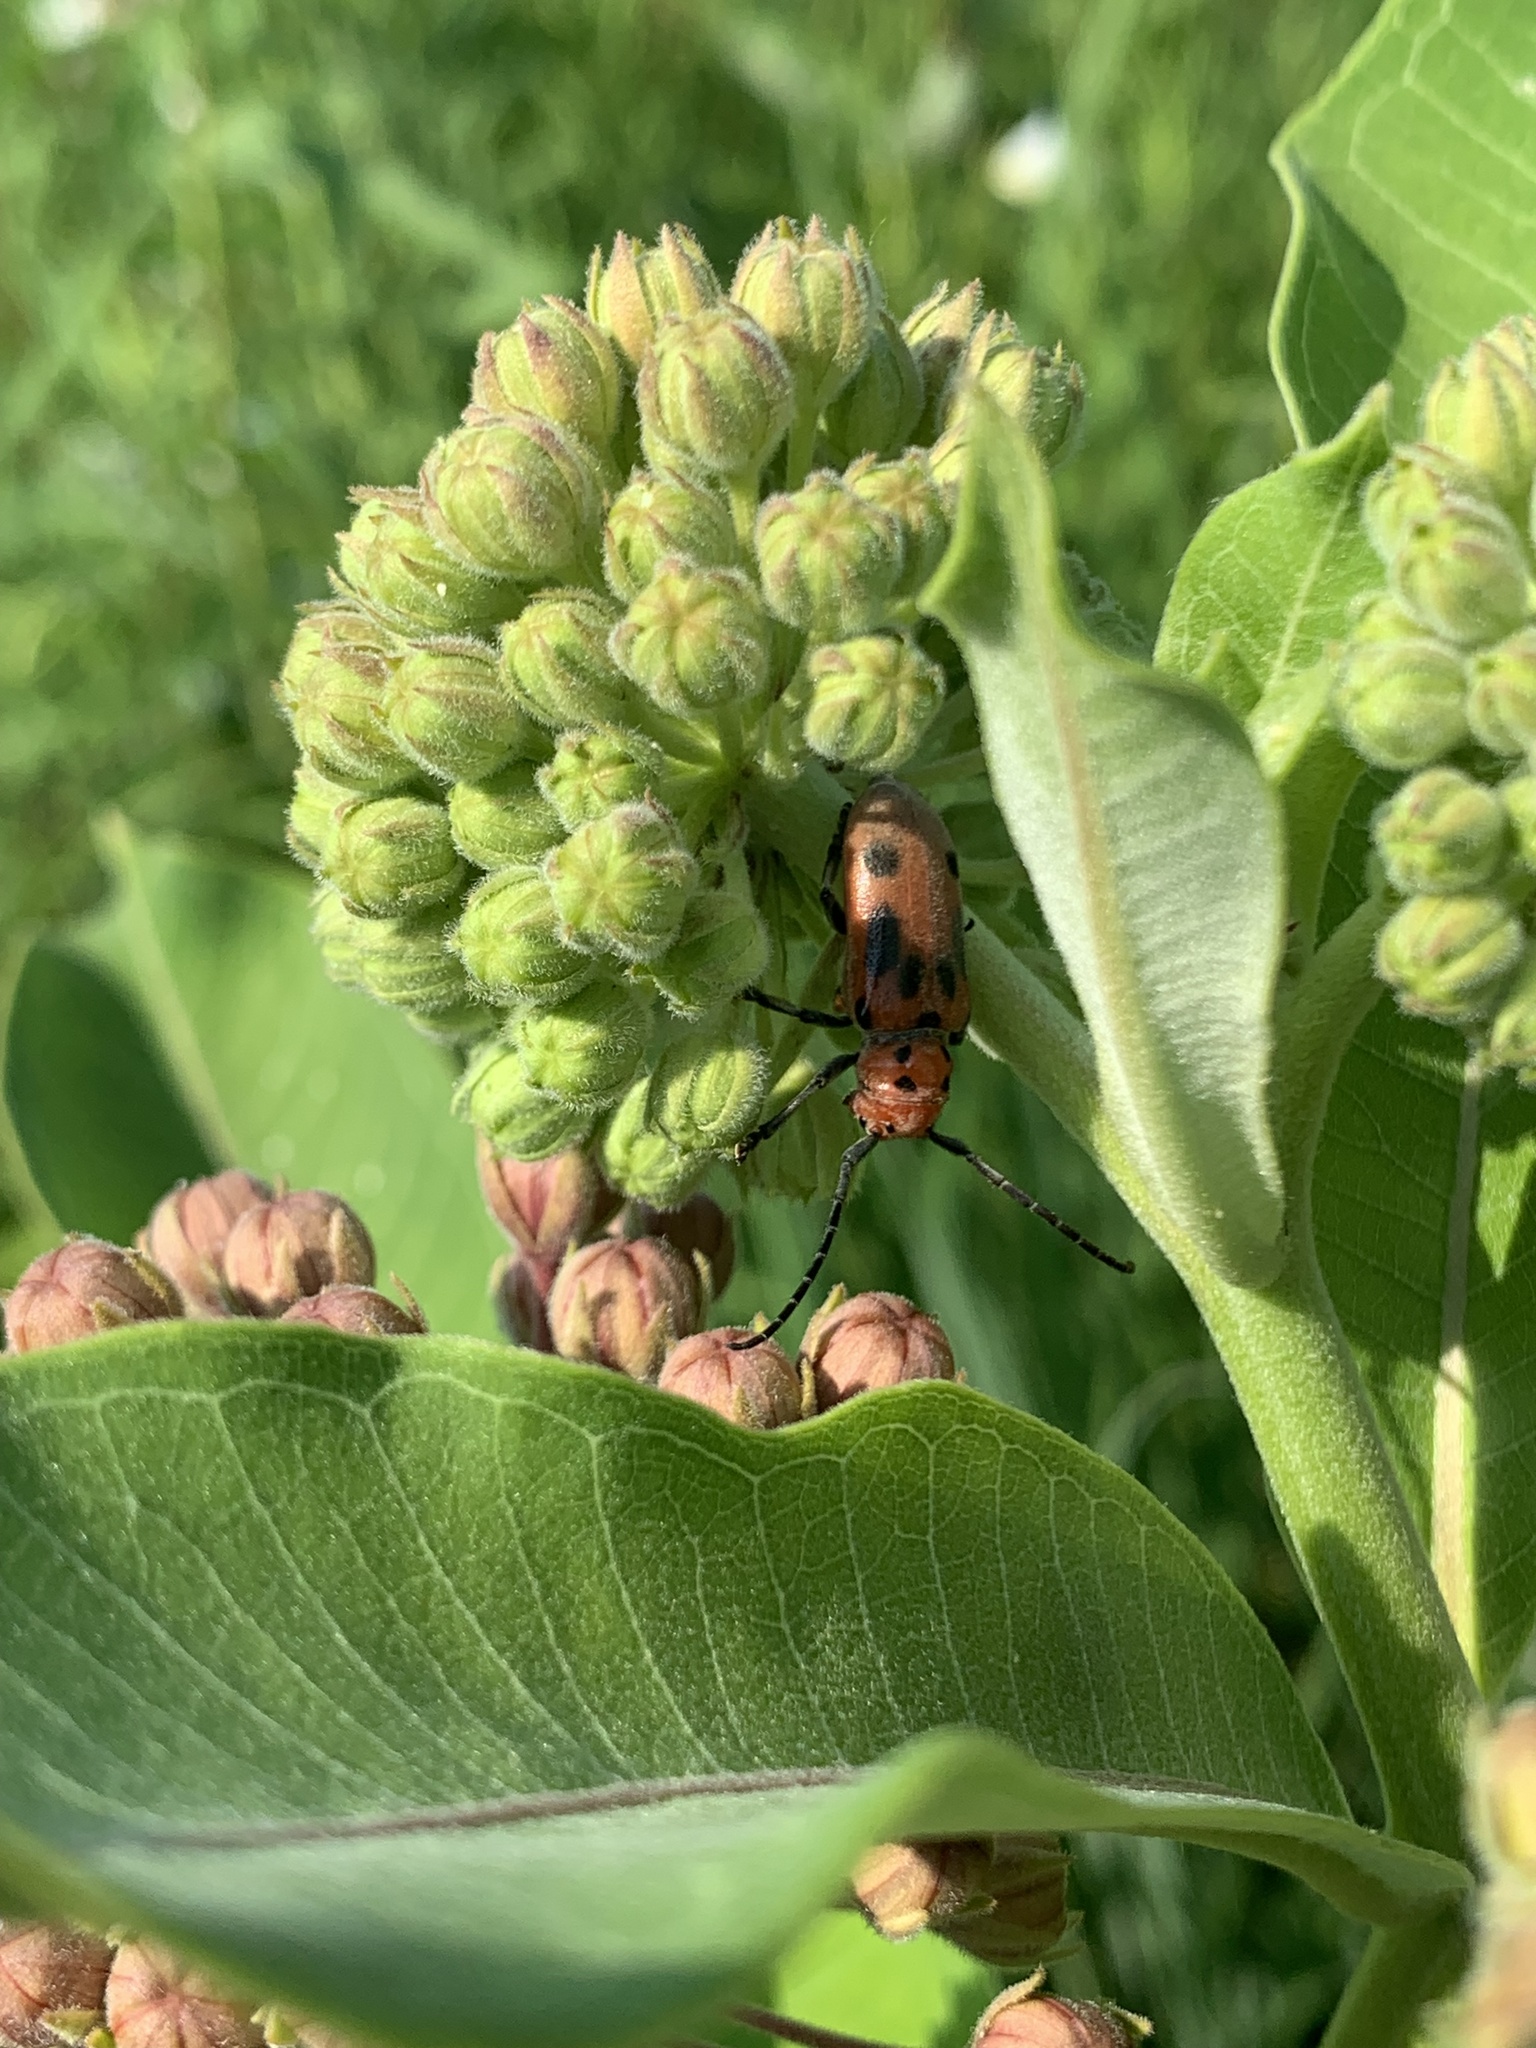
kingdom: Animalia
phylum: Arthropoda
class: Insecta
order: Coleoptera
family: Cerambycidae
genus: Tetraopes
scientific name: Tetraopes tetrophthalmus
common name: Red milkweed beetle
